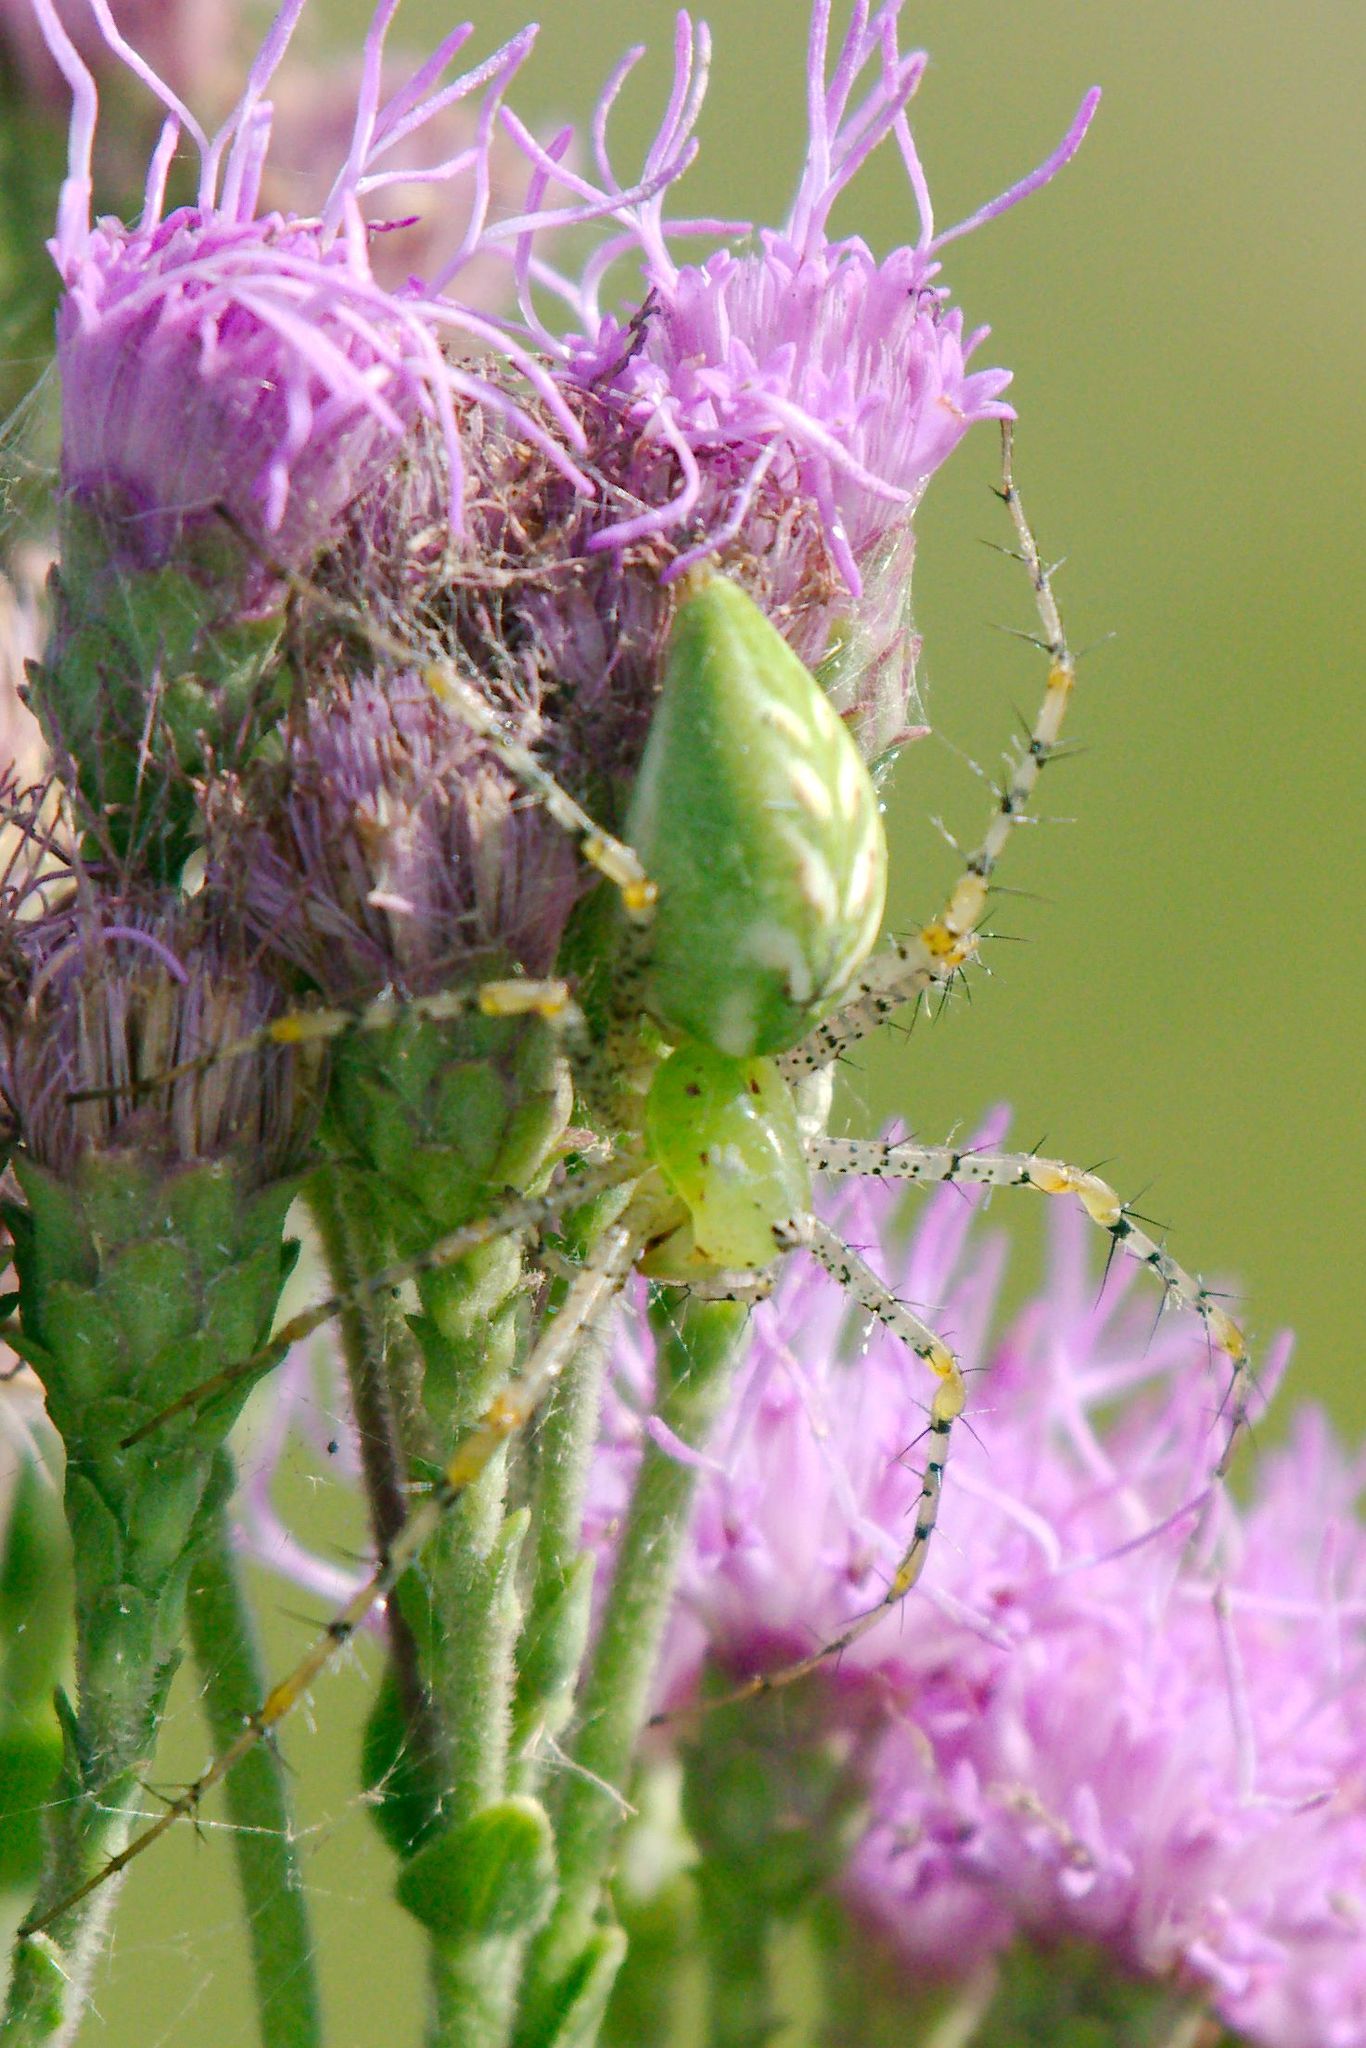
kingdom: Animalia
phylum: Arthropoda
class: Arachnida
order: Araneae
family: Oxyopidae
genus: Peucetia
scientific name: Peucetia viridans
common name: Lynx spiders
